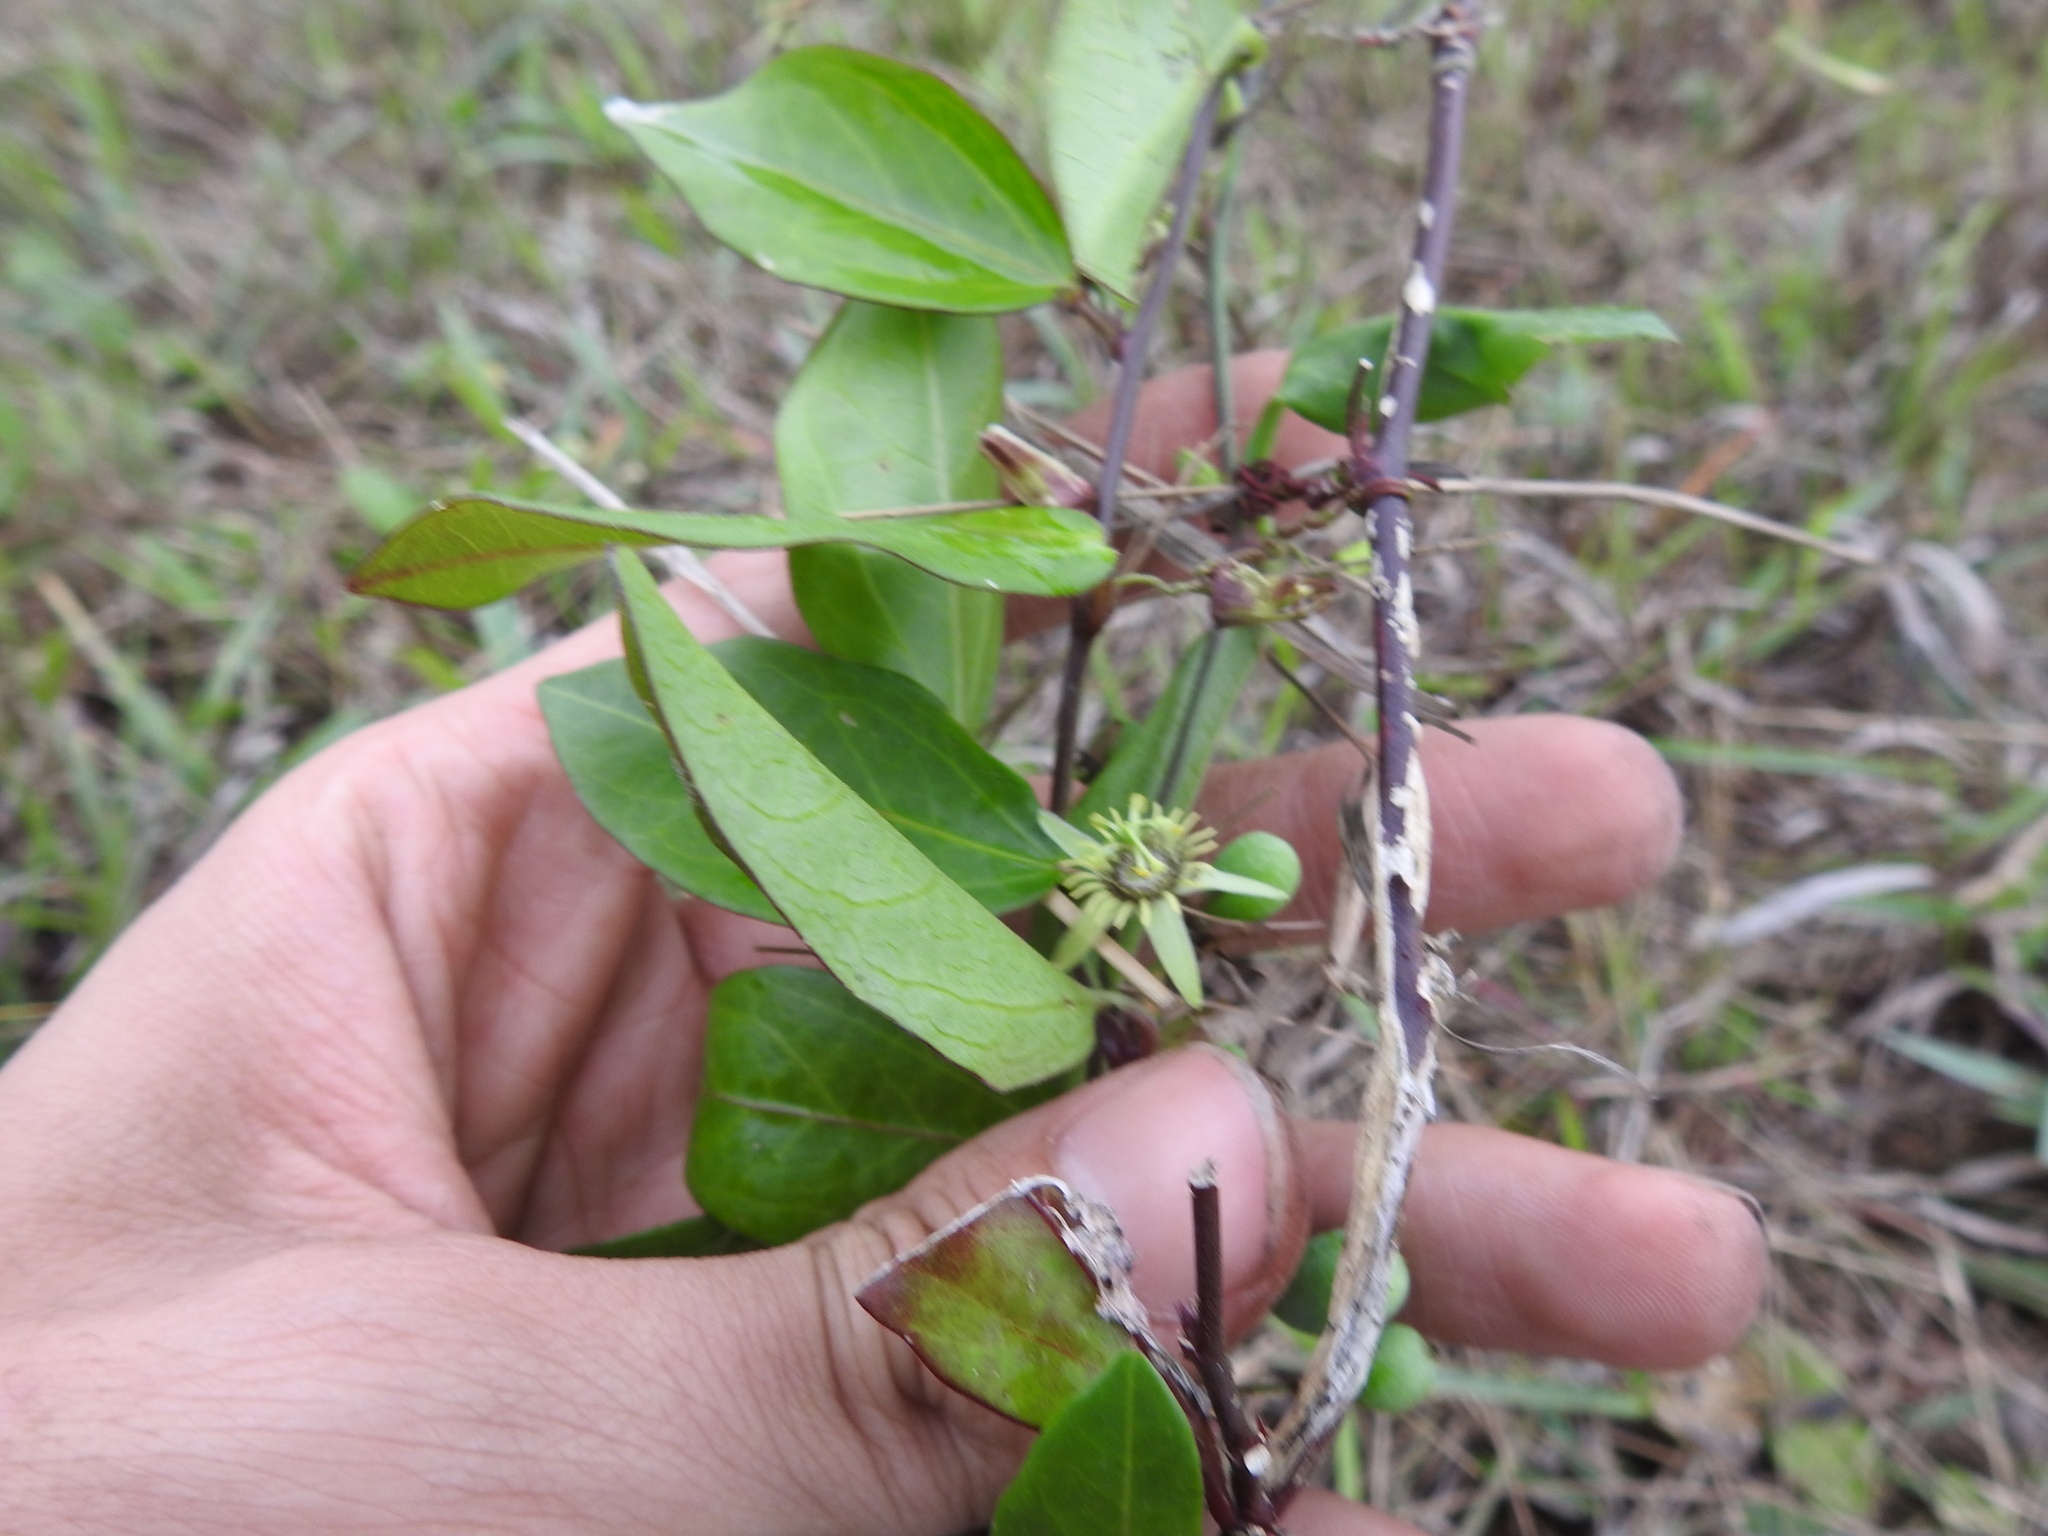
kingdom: Plantae
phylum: Tracheophyta
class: Magnoliopsida
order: Malpighiales
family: Passifloraceae
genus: Passiflora
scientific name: Passiflora pallida
